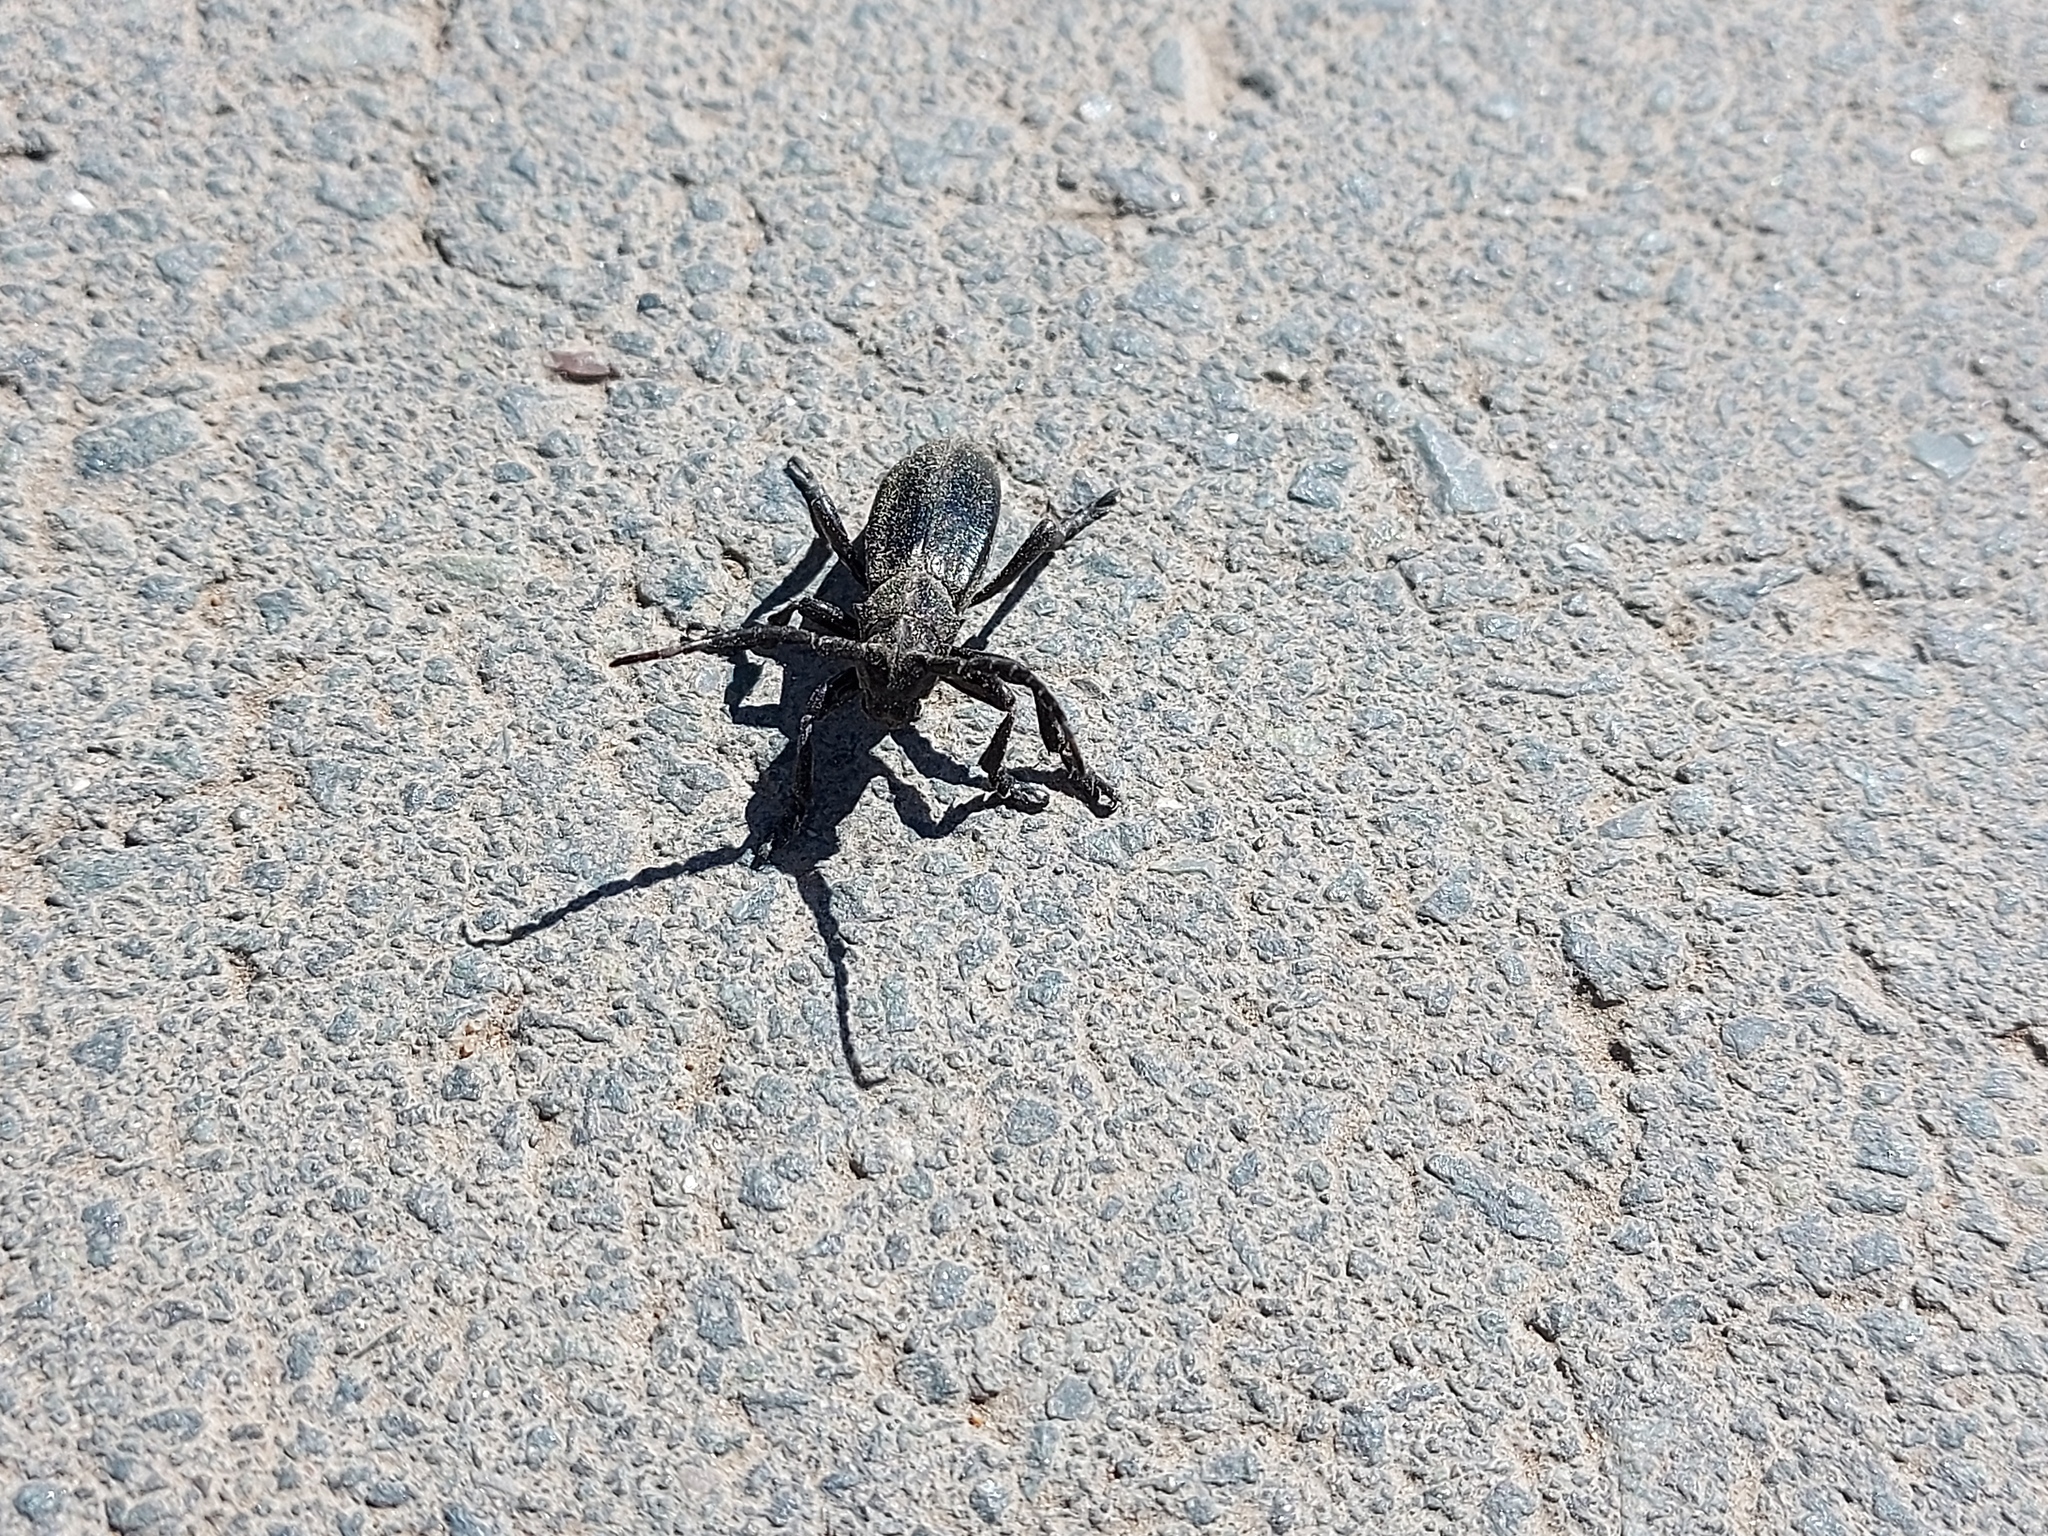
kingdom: Animalia
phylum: Arthropoda
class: Insecta
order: Coleoptera
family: Cerambycidae
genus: Dorcadion
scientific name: Dorcadion carinatum
